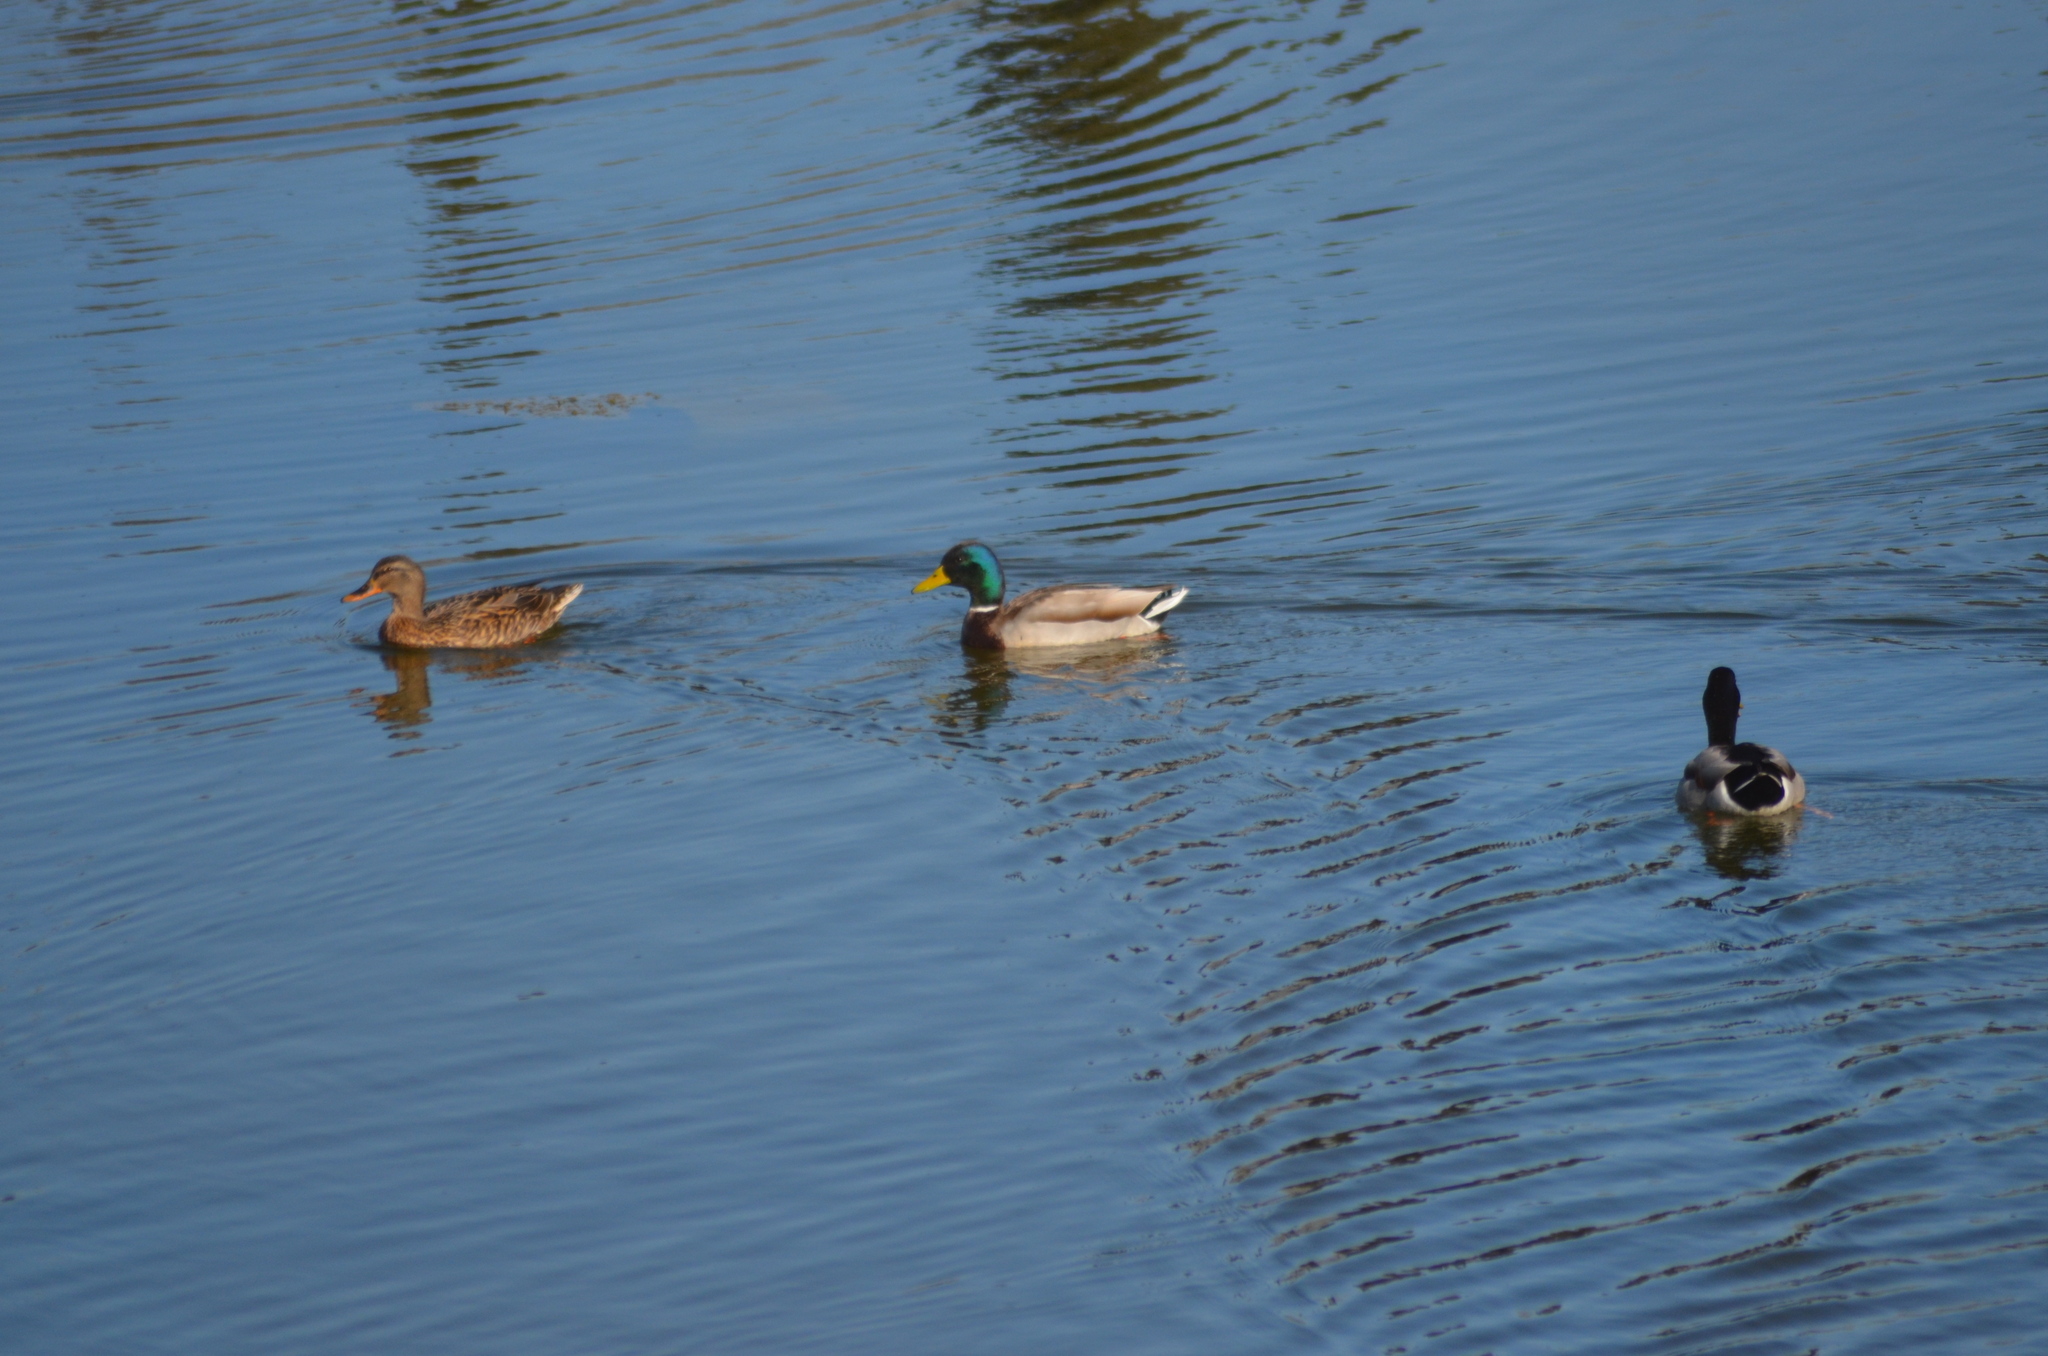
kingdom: Animalia
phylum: Chordata
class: Aves
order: Anseriformes
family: Anatidae
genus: Anas
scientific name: Anas platyrhynchos
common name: Mallard
